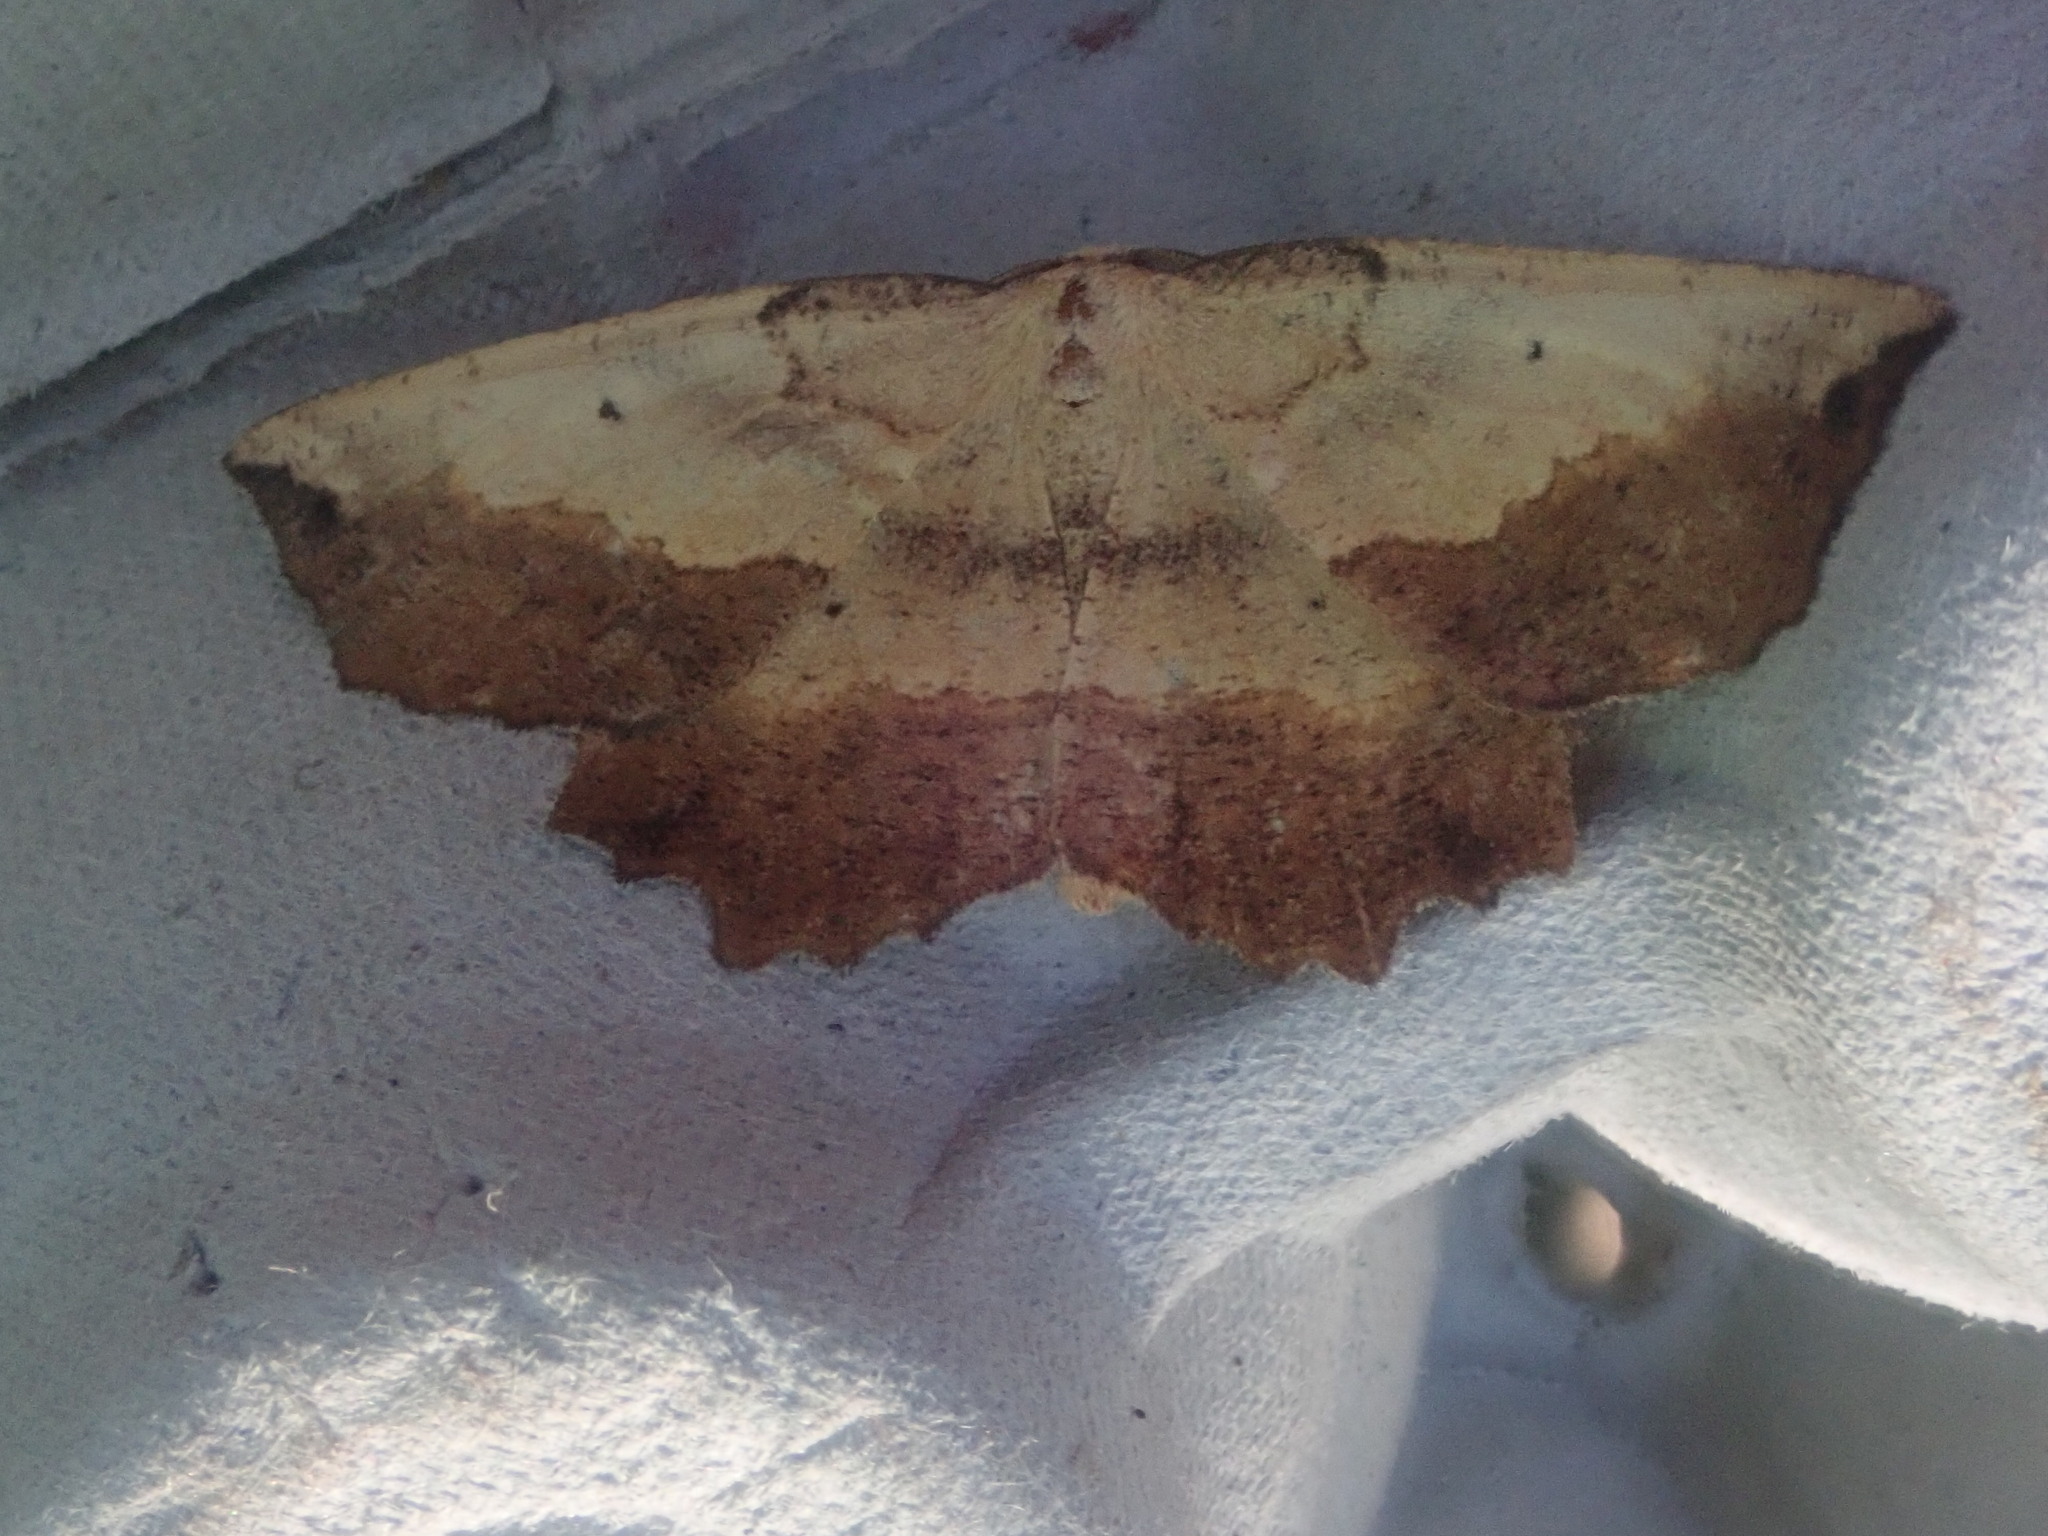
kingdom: Animalia
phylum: Arthropoda
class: Insecta
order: Lepidoptera
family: Geometridae
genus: Euchlaena
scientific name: Euchlaena serrata
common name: Saw wing
